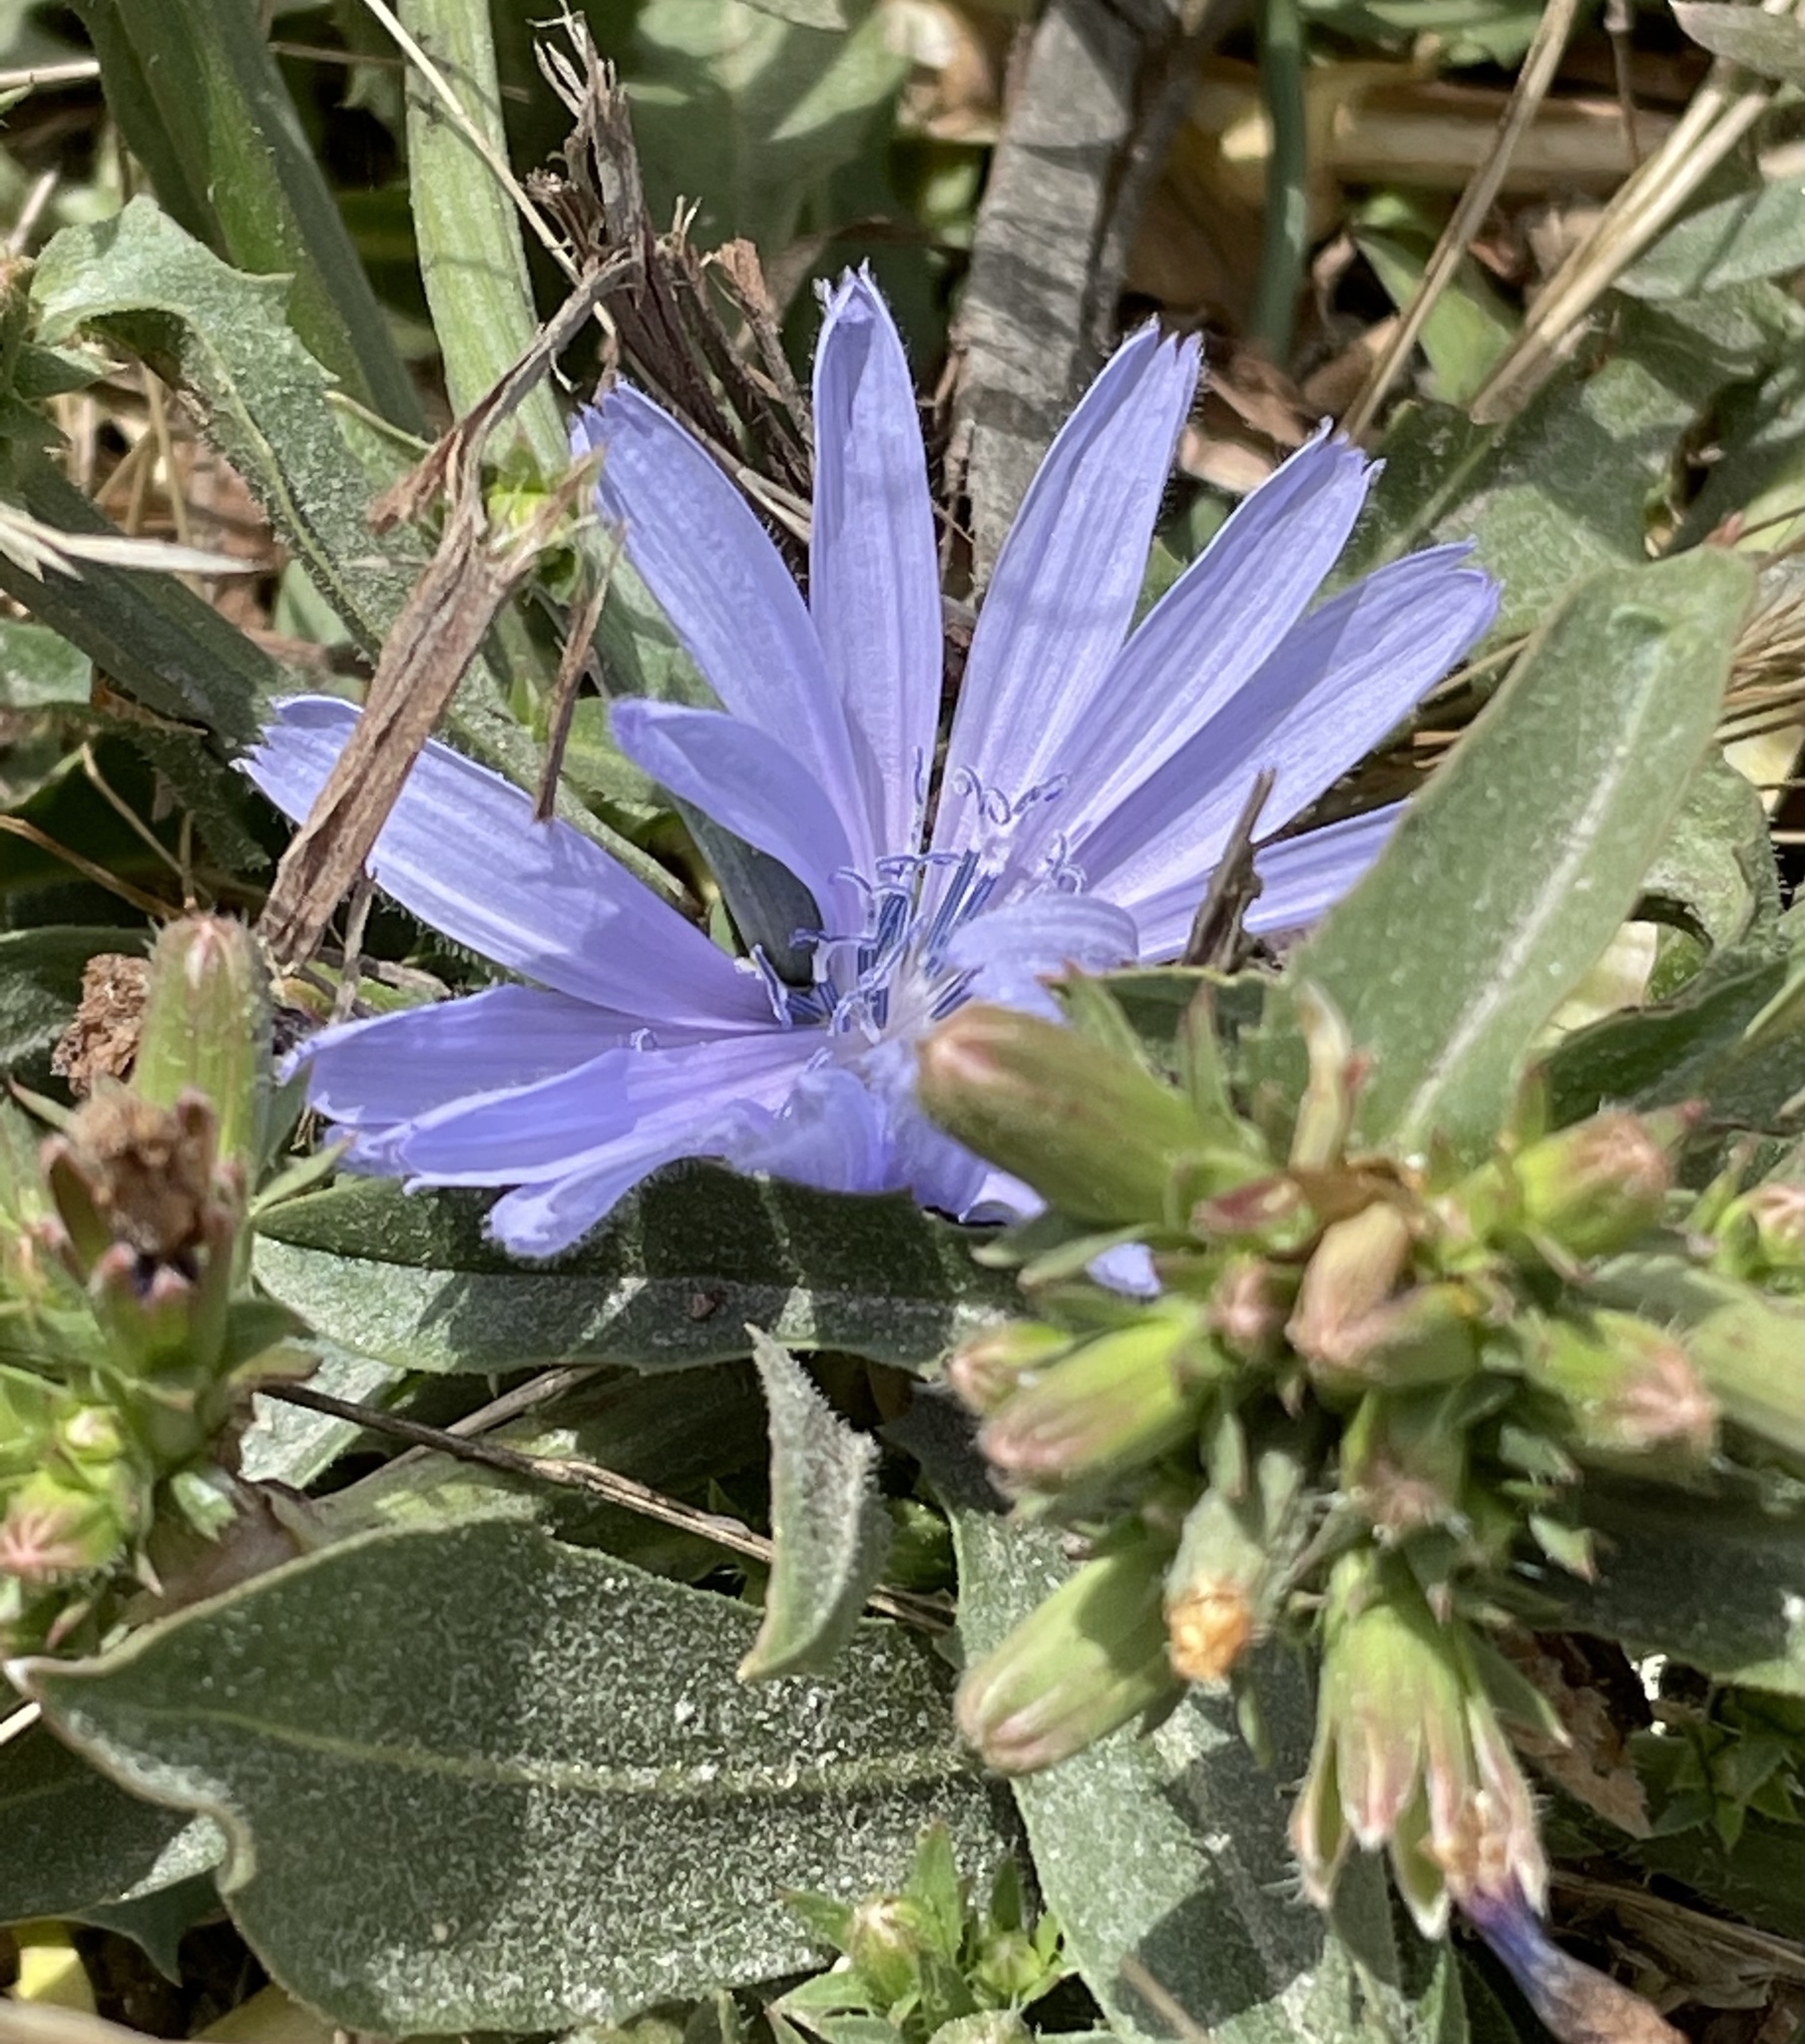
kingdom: Plantae
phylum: Tracheophyta
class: Magnoliopsida
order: Asterales
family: Asteraceae
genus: Cichorium
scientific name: Cichorium intybus
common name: Chicory
